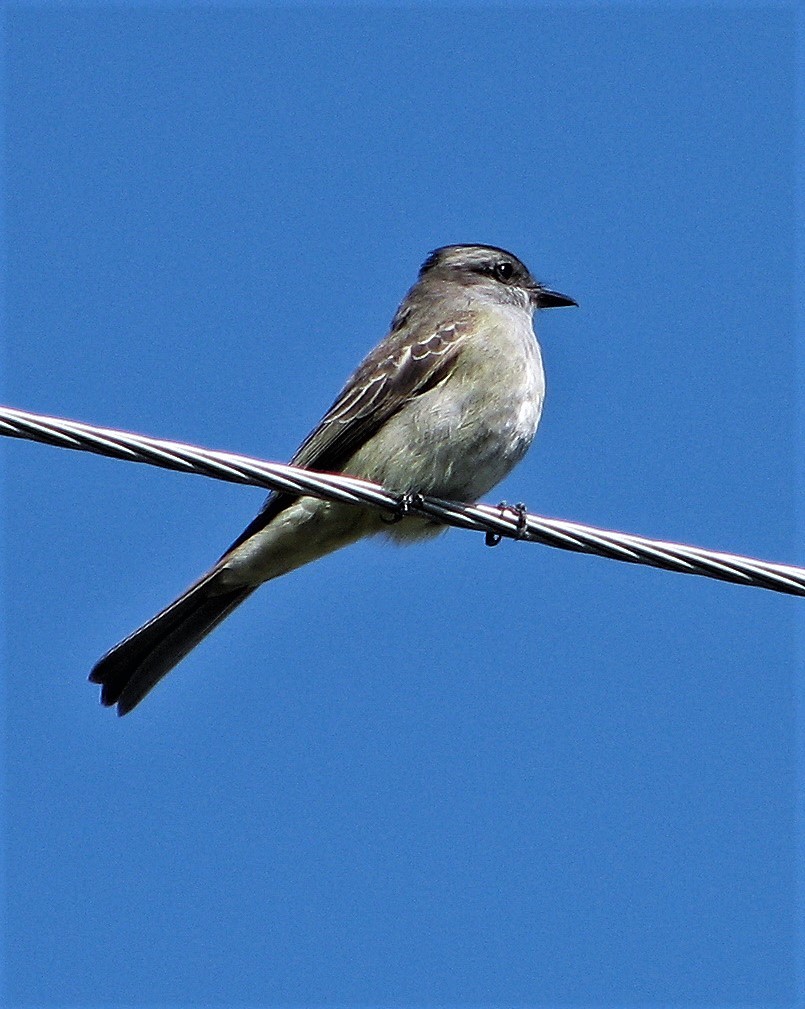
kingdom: Animalia
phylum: Chordata
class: Aves
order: Passeriformes
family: Tyrannidae
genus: Empidonomus
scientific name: Empidonomus aurantioatrocristatus
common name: Crowned slaty flycatcher
